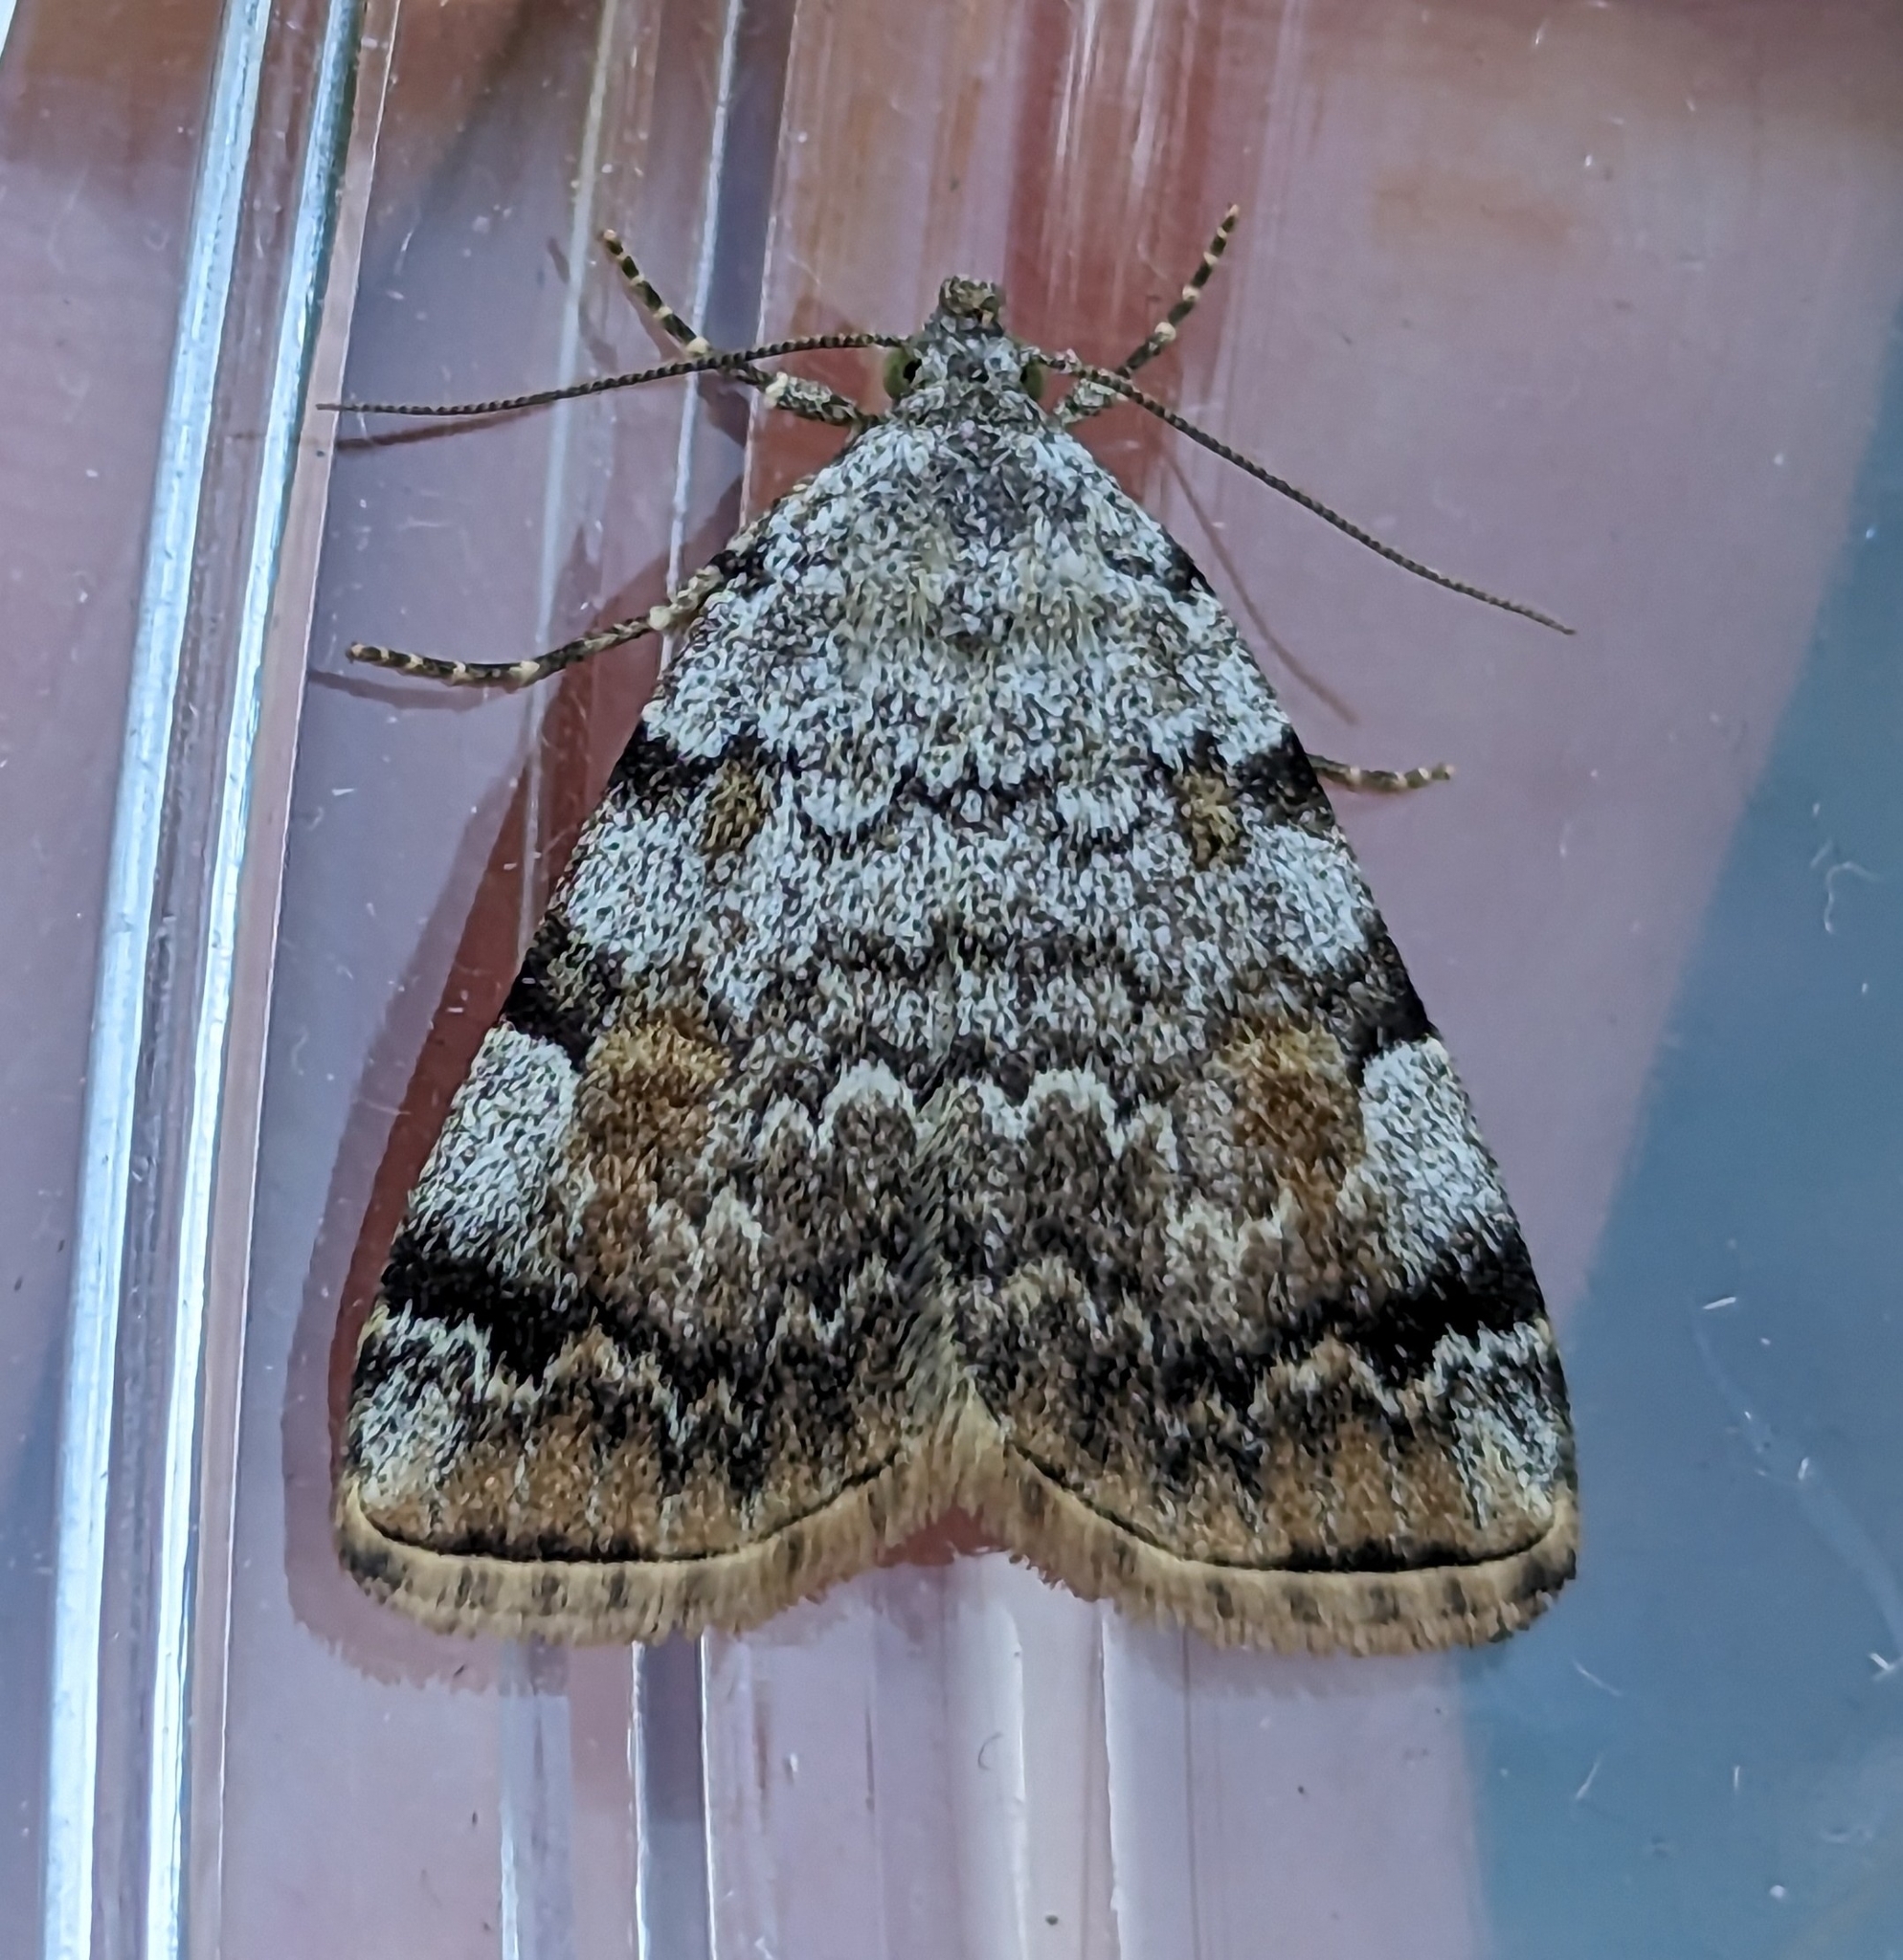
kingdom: Animalia
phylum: Arthropoda
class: Insecta
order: Lepidoptera
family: Erebidae
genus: Idia
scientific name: Idia americalis
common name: American idia moth
